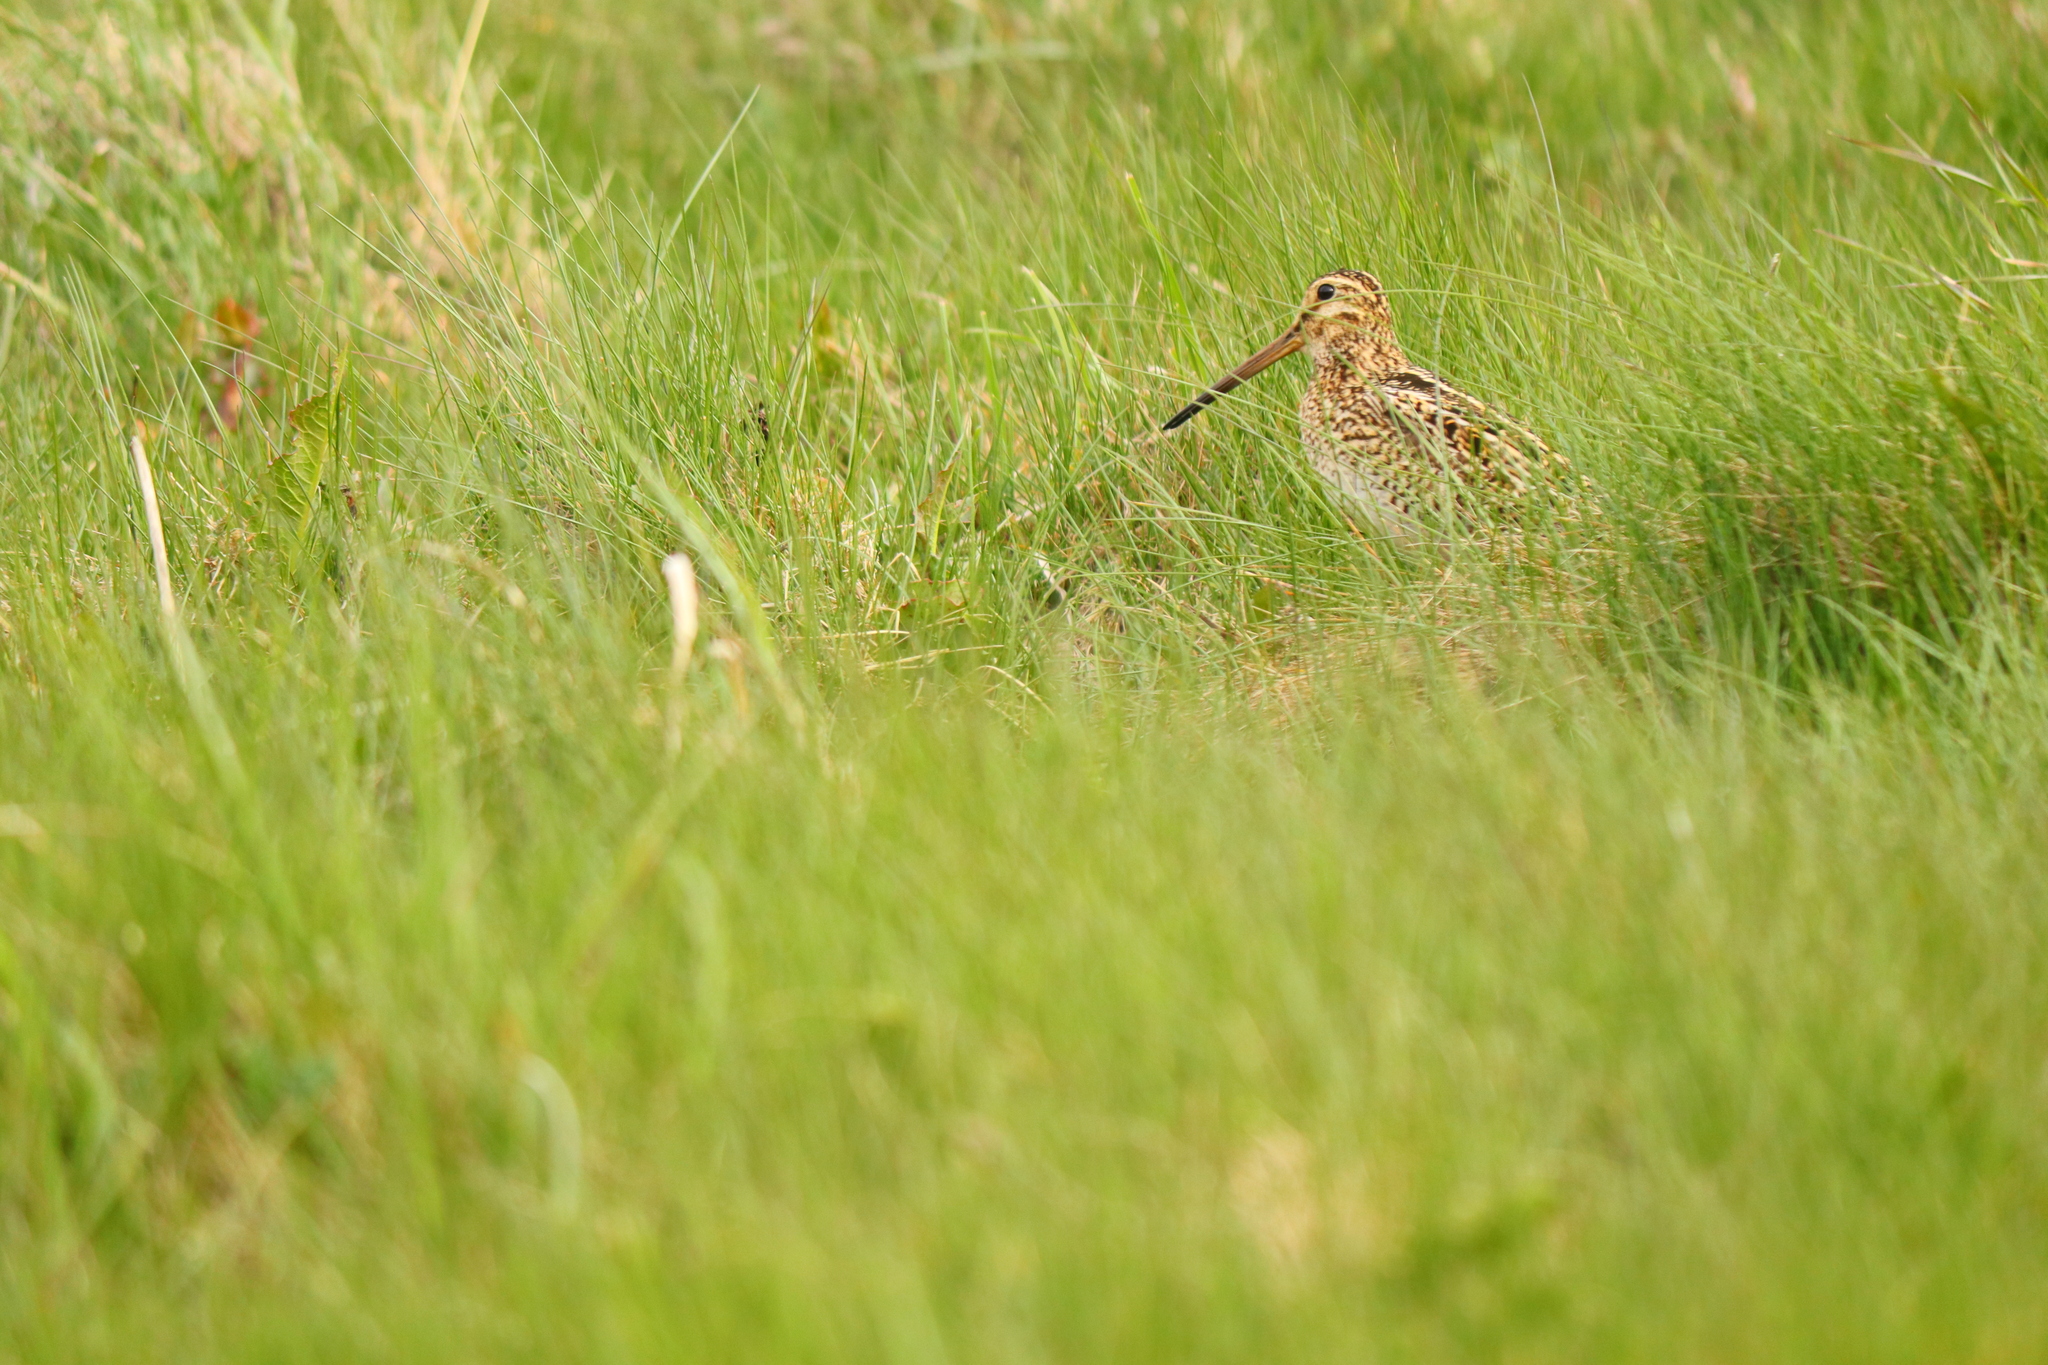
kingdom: Animalia
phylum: Chordata
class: Aves
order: Charadriiformes
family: Scolopacidae
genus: Gallinago
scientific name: Gallinago magellanica
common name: Magellanic snipe
